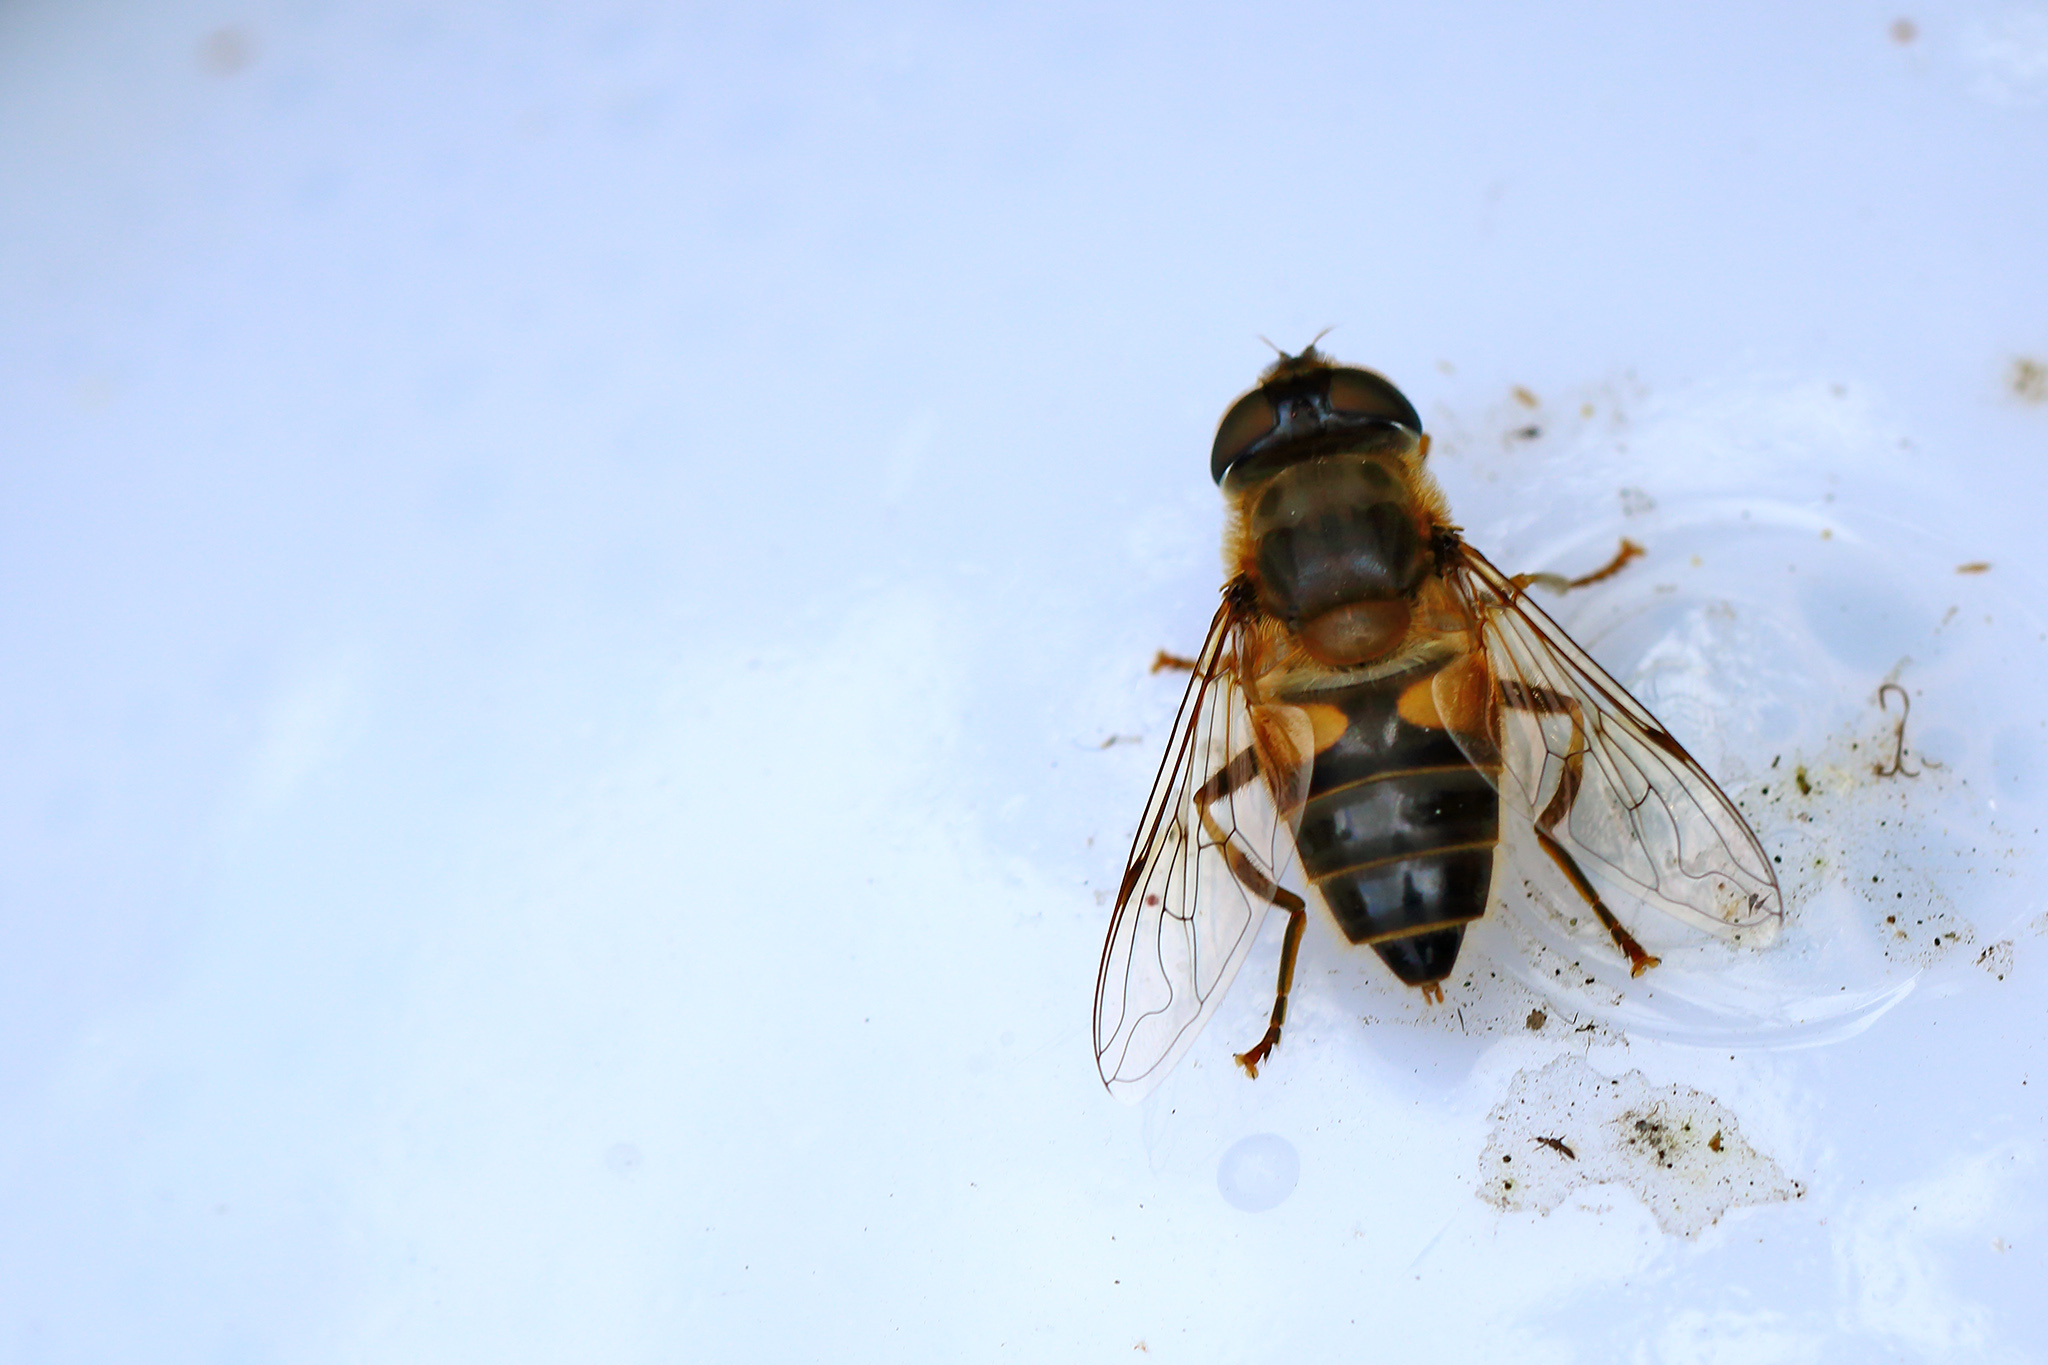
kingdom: Animalia
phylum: Arthropoda
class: Insecta
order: Diptera
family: Syrphidae
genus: Eristalis
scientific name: Eristalis pertinax
